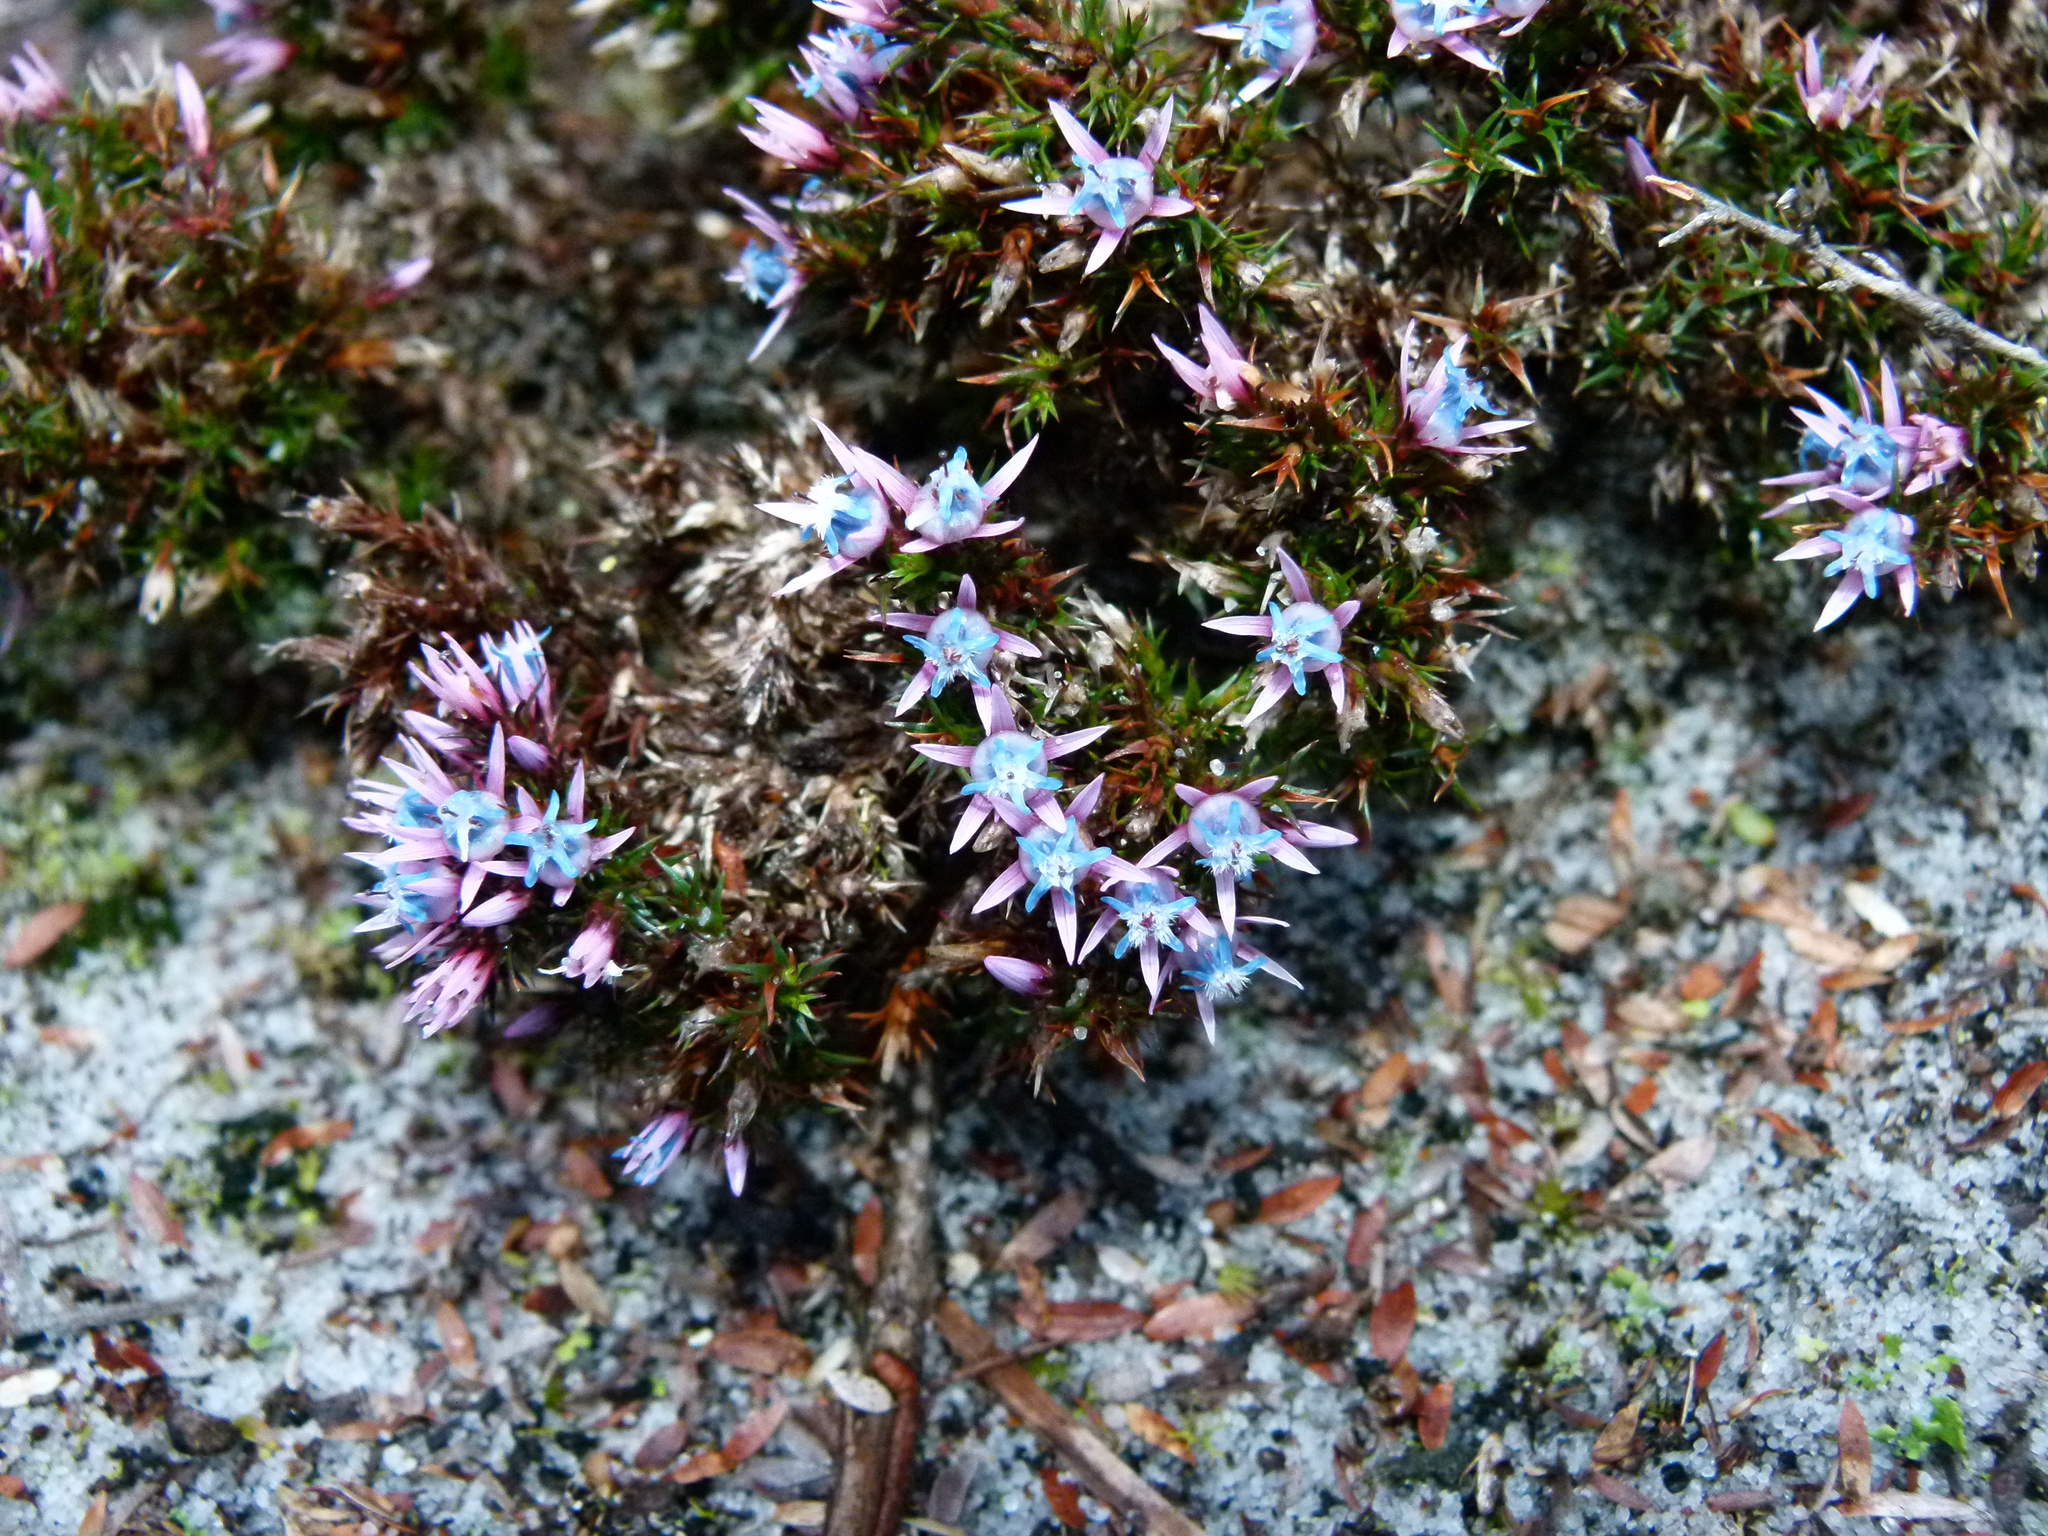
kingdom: Plantae
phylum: Tracheophyta
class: Magnoliopsida
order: Ericales
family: Ericaceae
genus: Andersonia
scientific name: Andersonia caerulea
